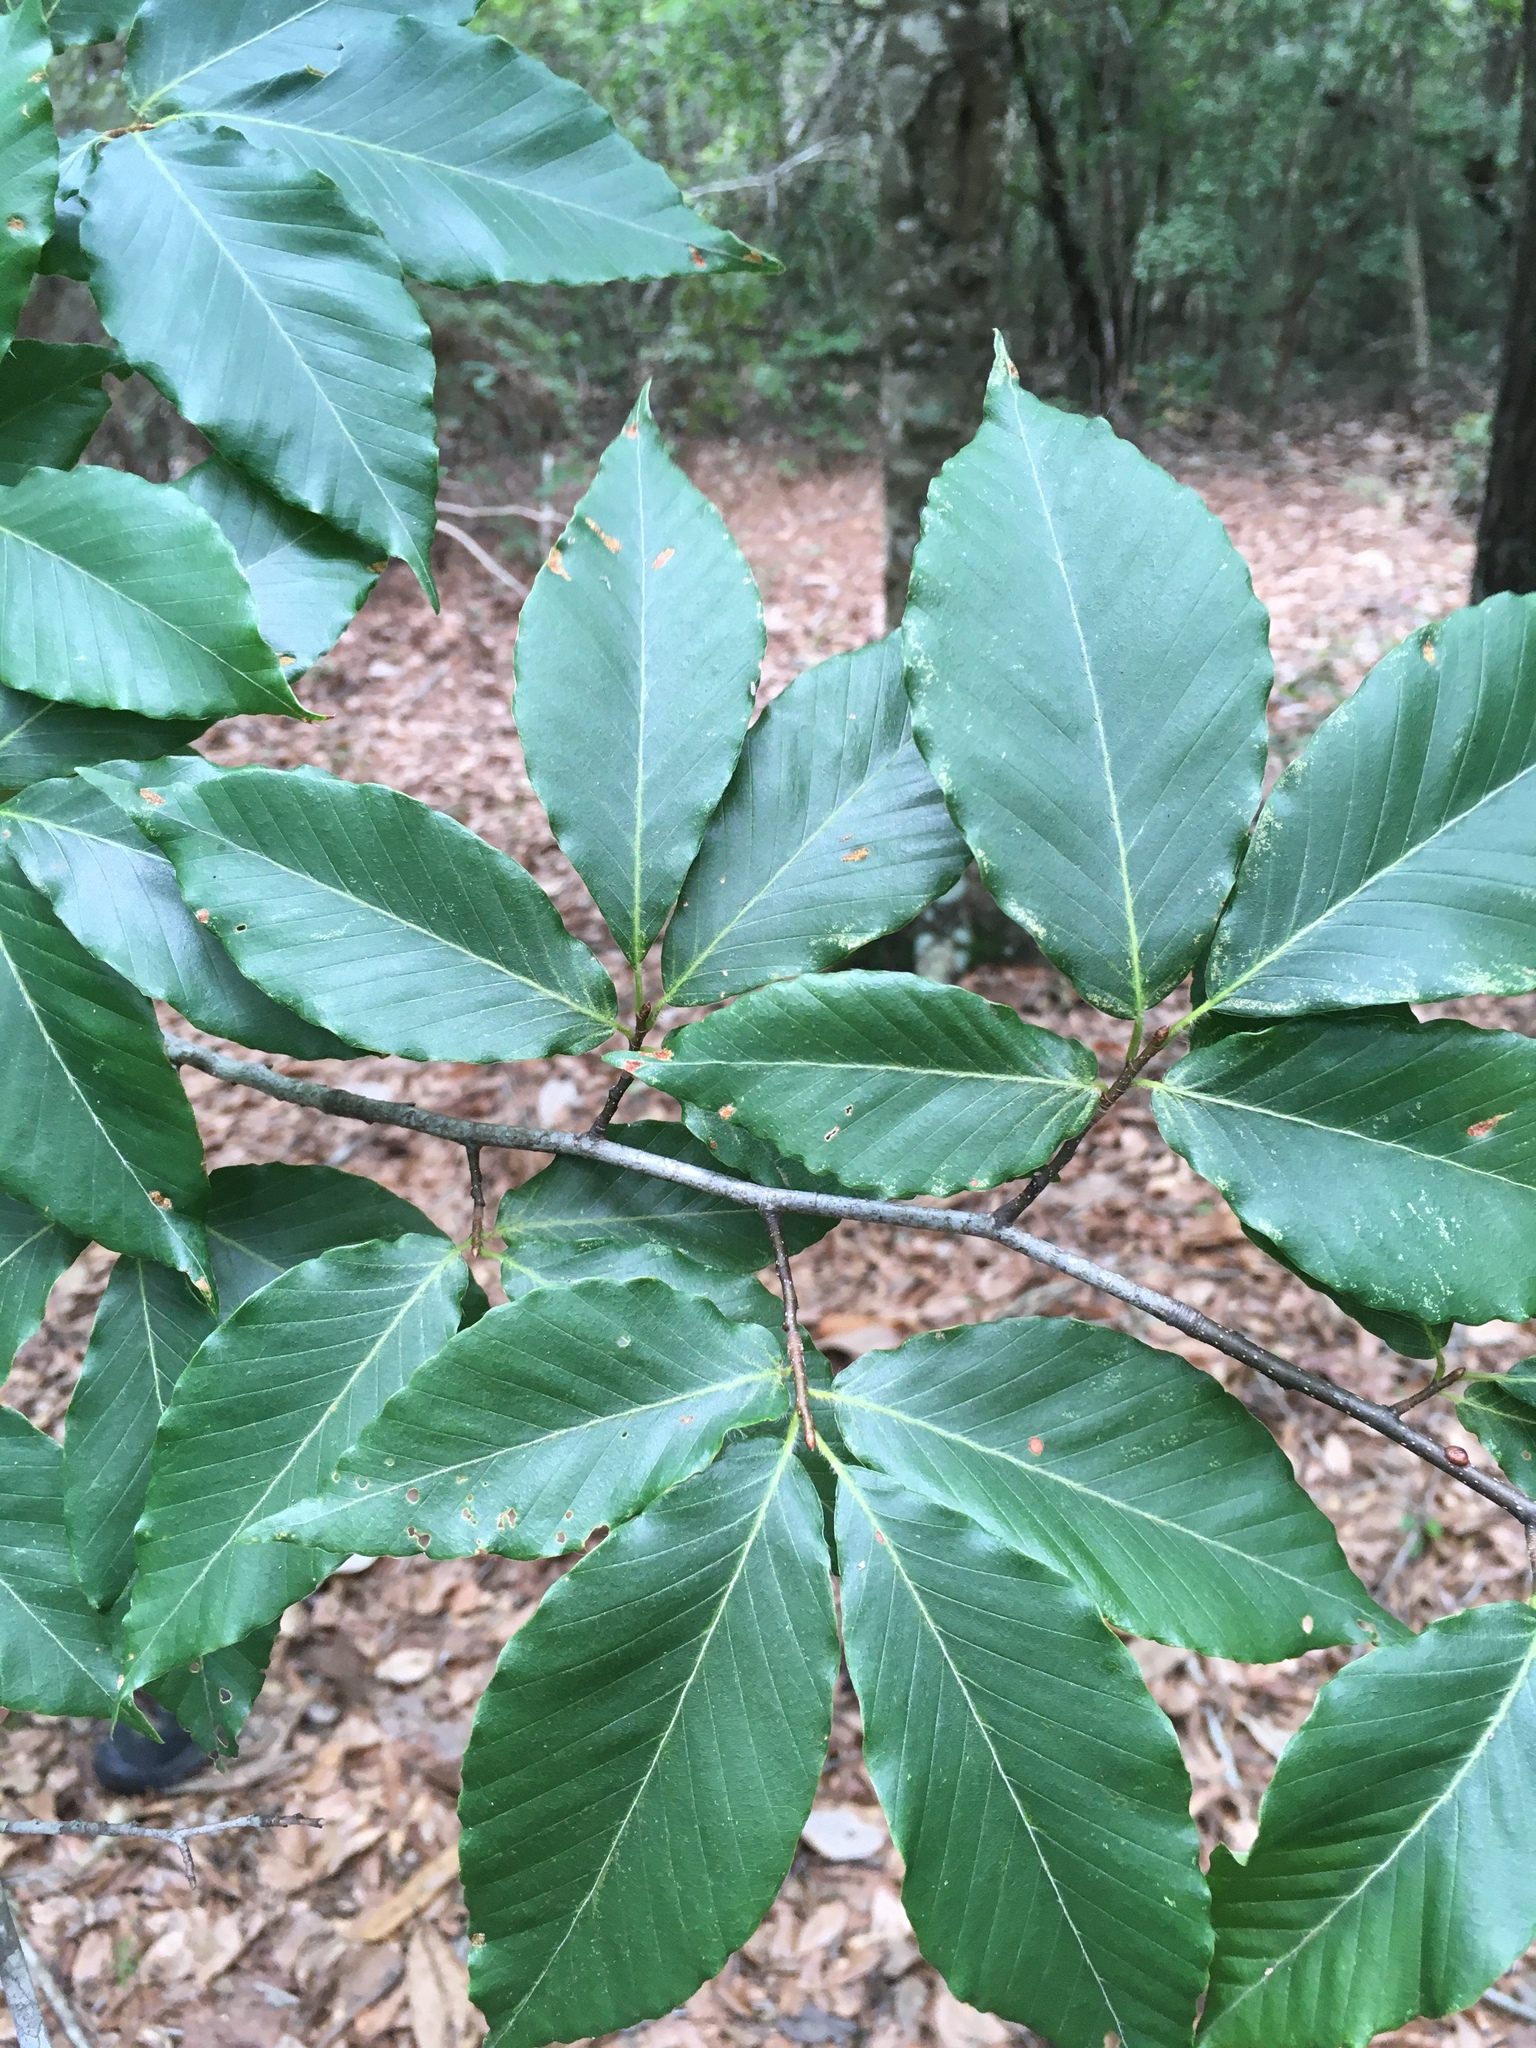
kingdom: Plantae
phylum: Tracheophyta
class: Magnoliopsida
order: Fagales
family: Fagaceae
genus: Fagus
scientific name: Fagus grandifolia
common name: American beech
